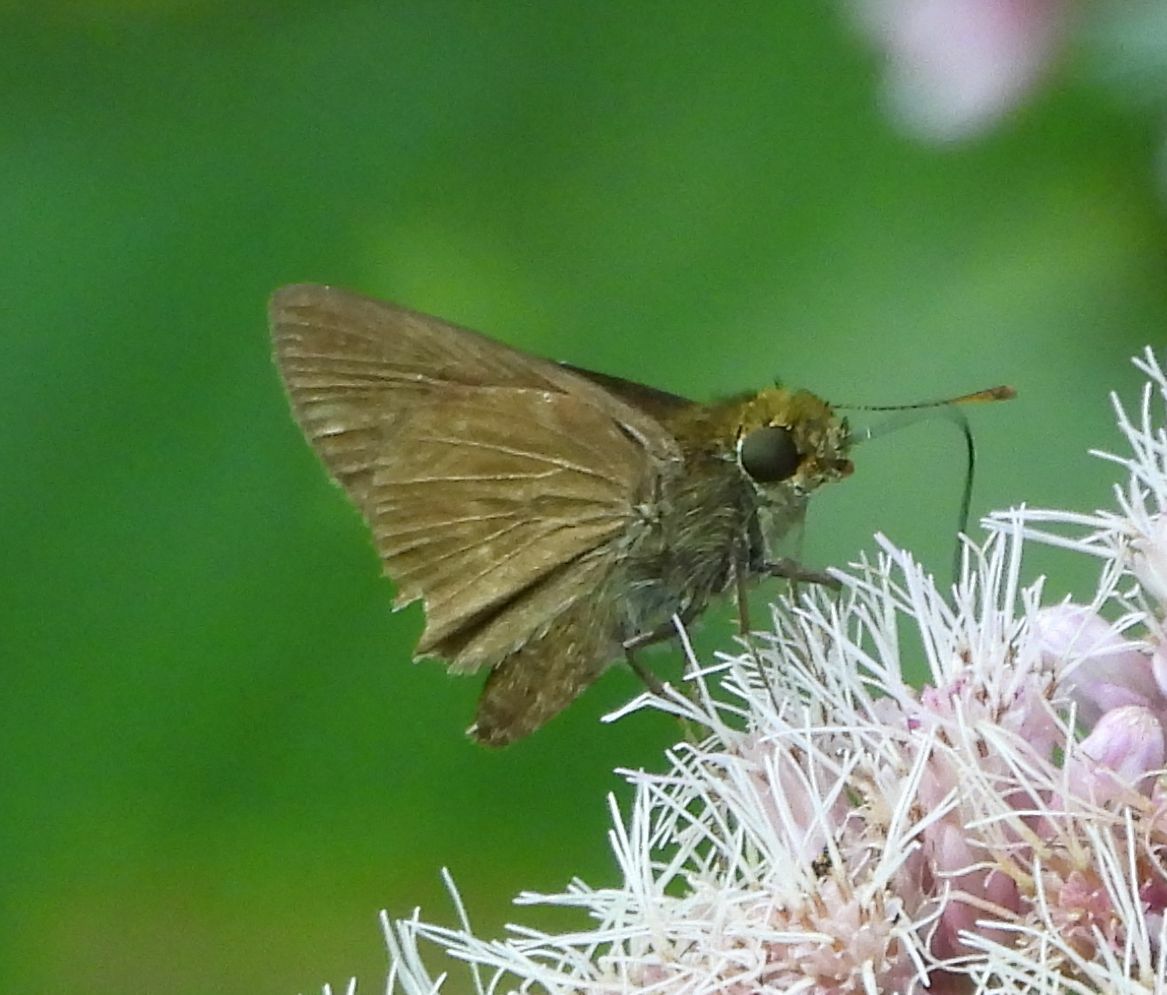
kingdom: Animalia
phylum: Arthropoda
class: Insecta
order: Lepidoptera
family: Hesperiidae
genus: Euphyes
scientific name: Euphyes vestris
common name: Dun skipper
